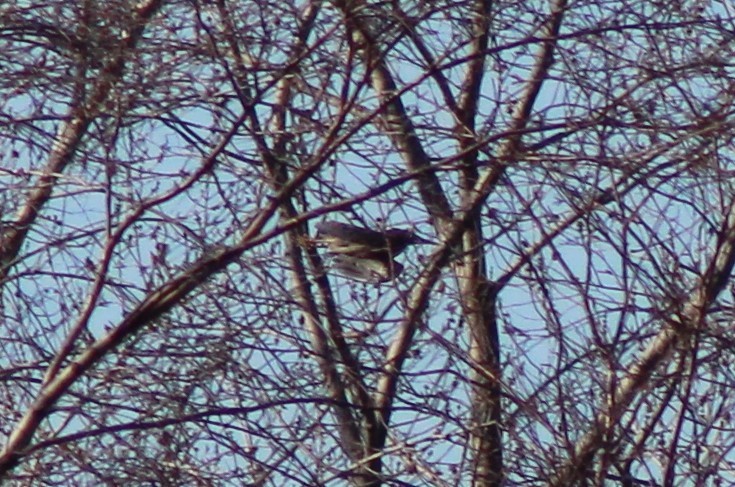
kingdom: Animalia
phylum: Chordata
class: Aves
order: Pelecaniformes
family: Ardeidae
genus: Butorides
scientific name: Butorides virescens
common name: Green heron
